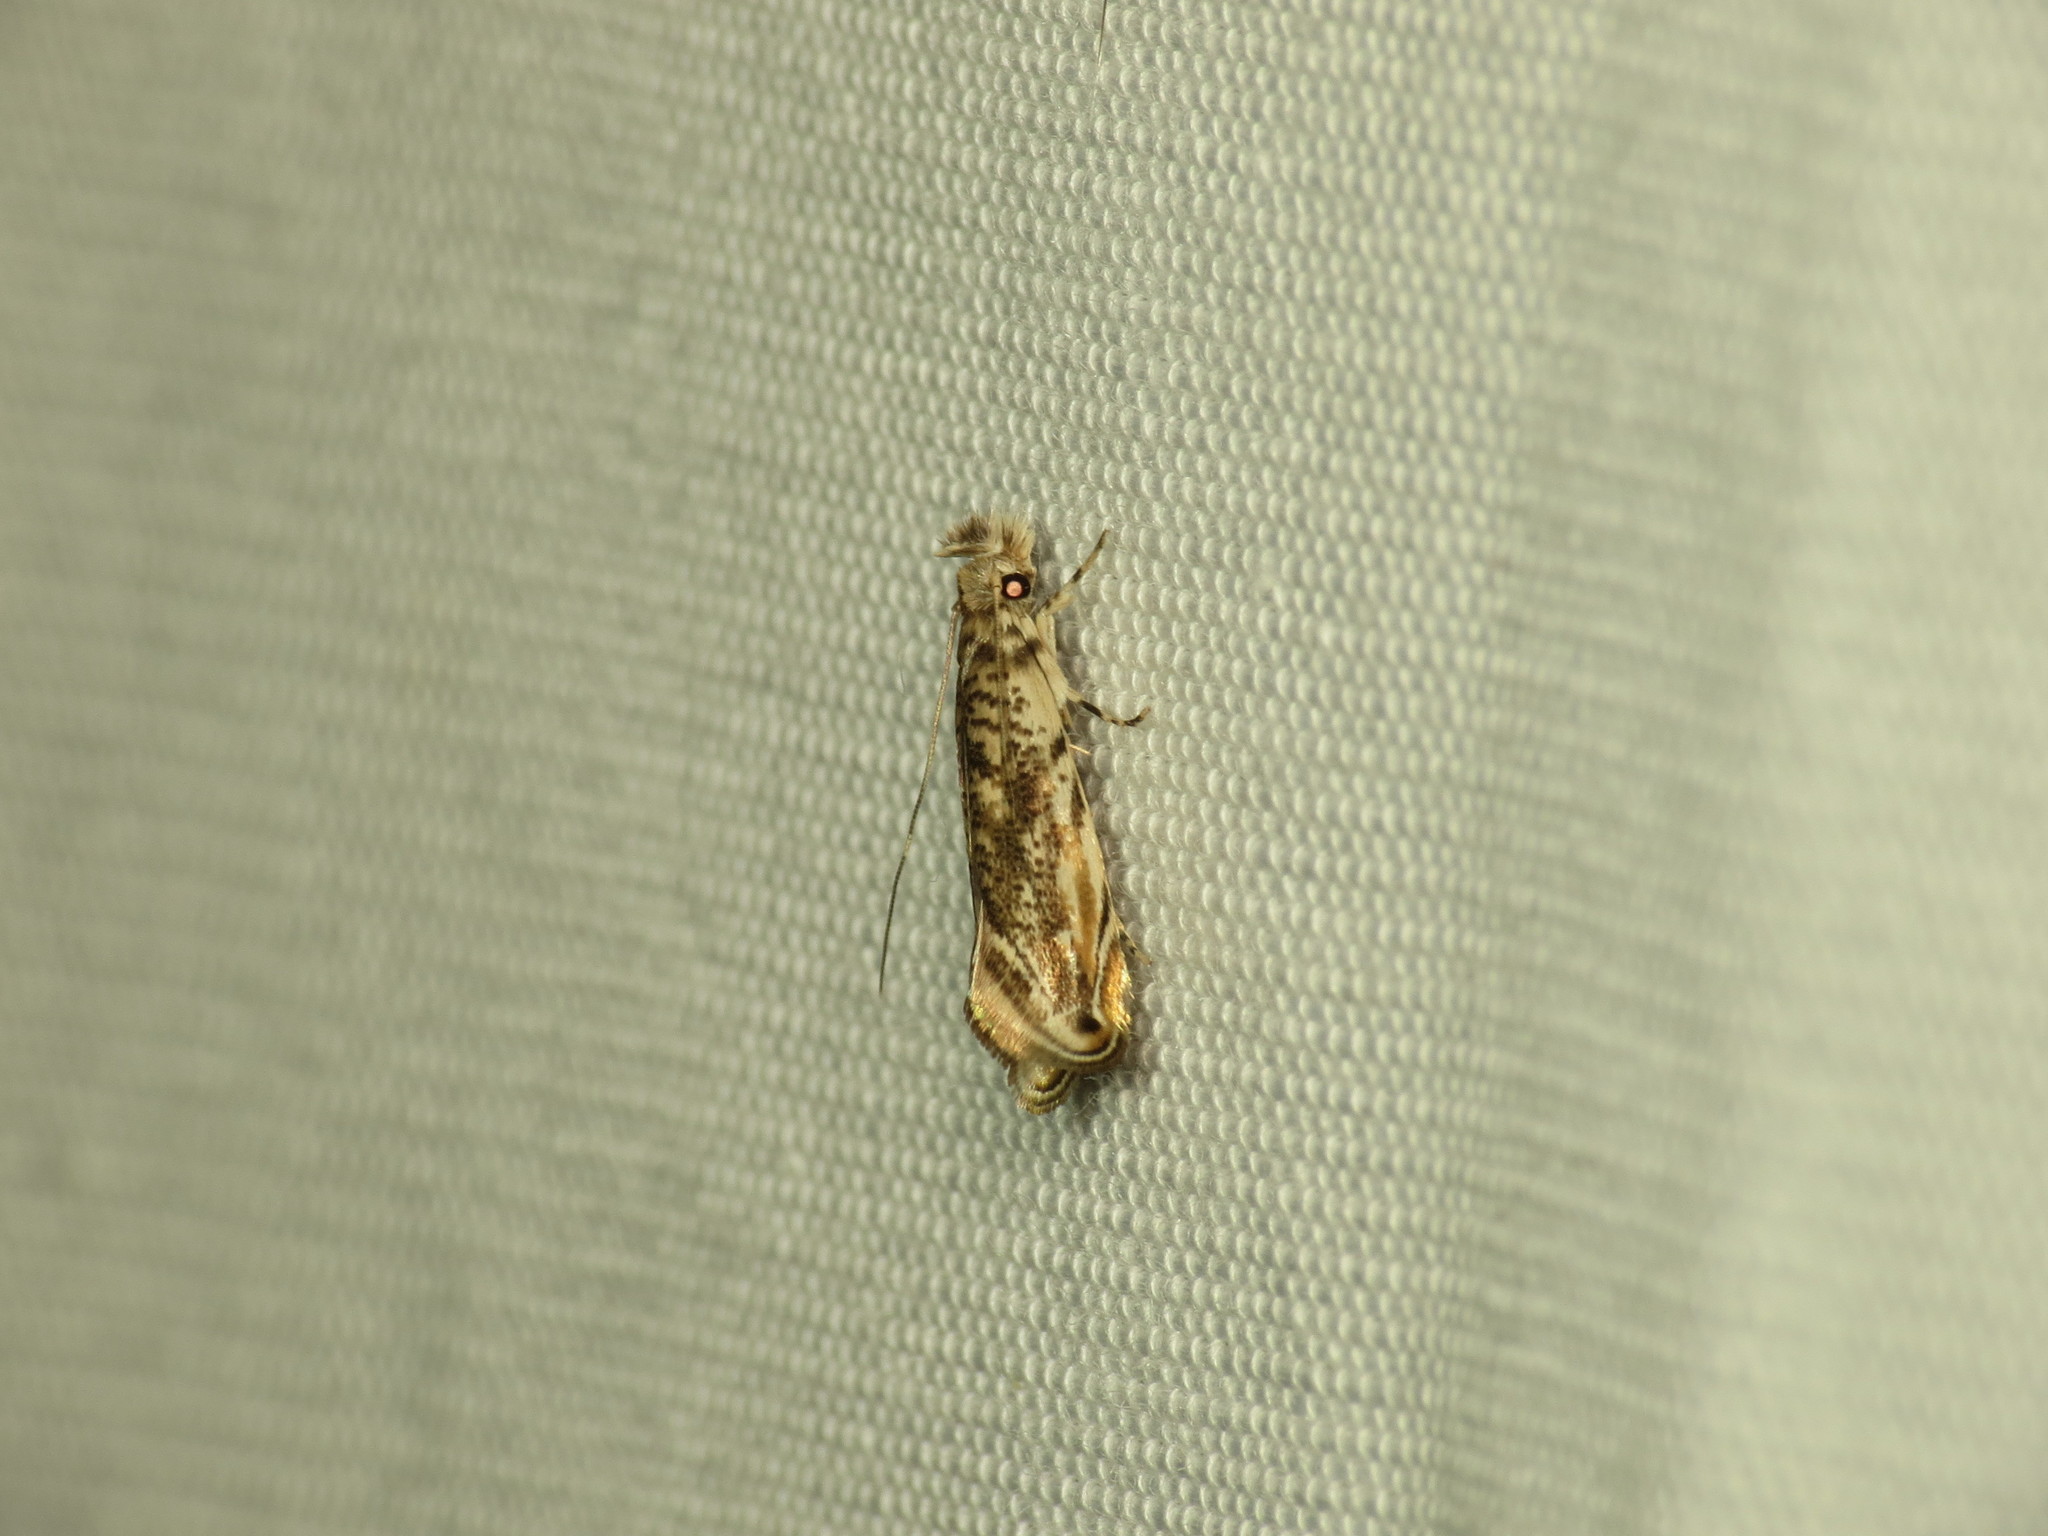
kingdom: Animalia
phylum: Arthropoda
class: Insecta
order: Lepidoptera
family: Tineidae
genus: Erechthias
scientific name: Erechthias pelotricha
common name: Fungus moth
